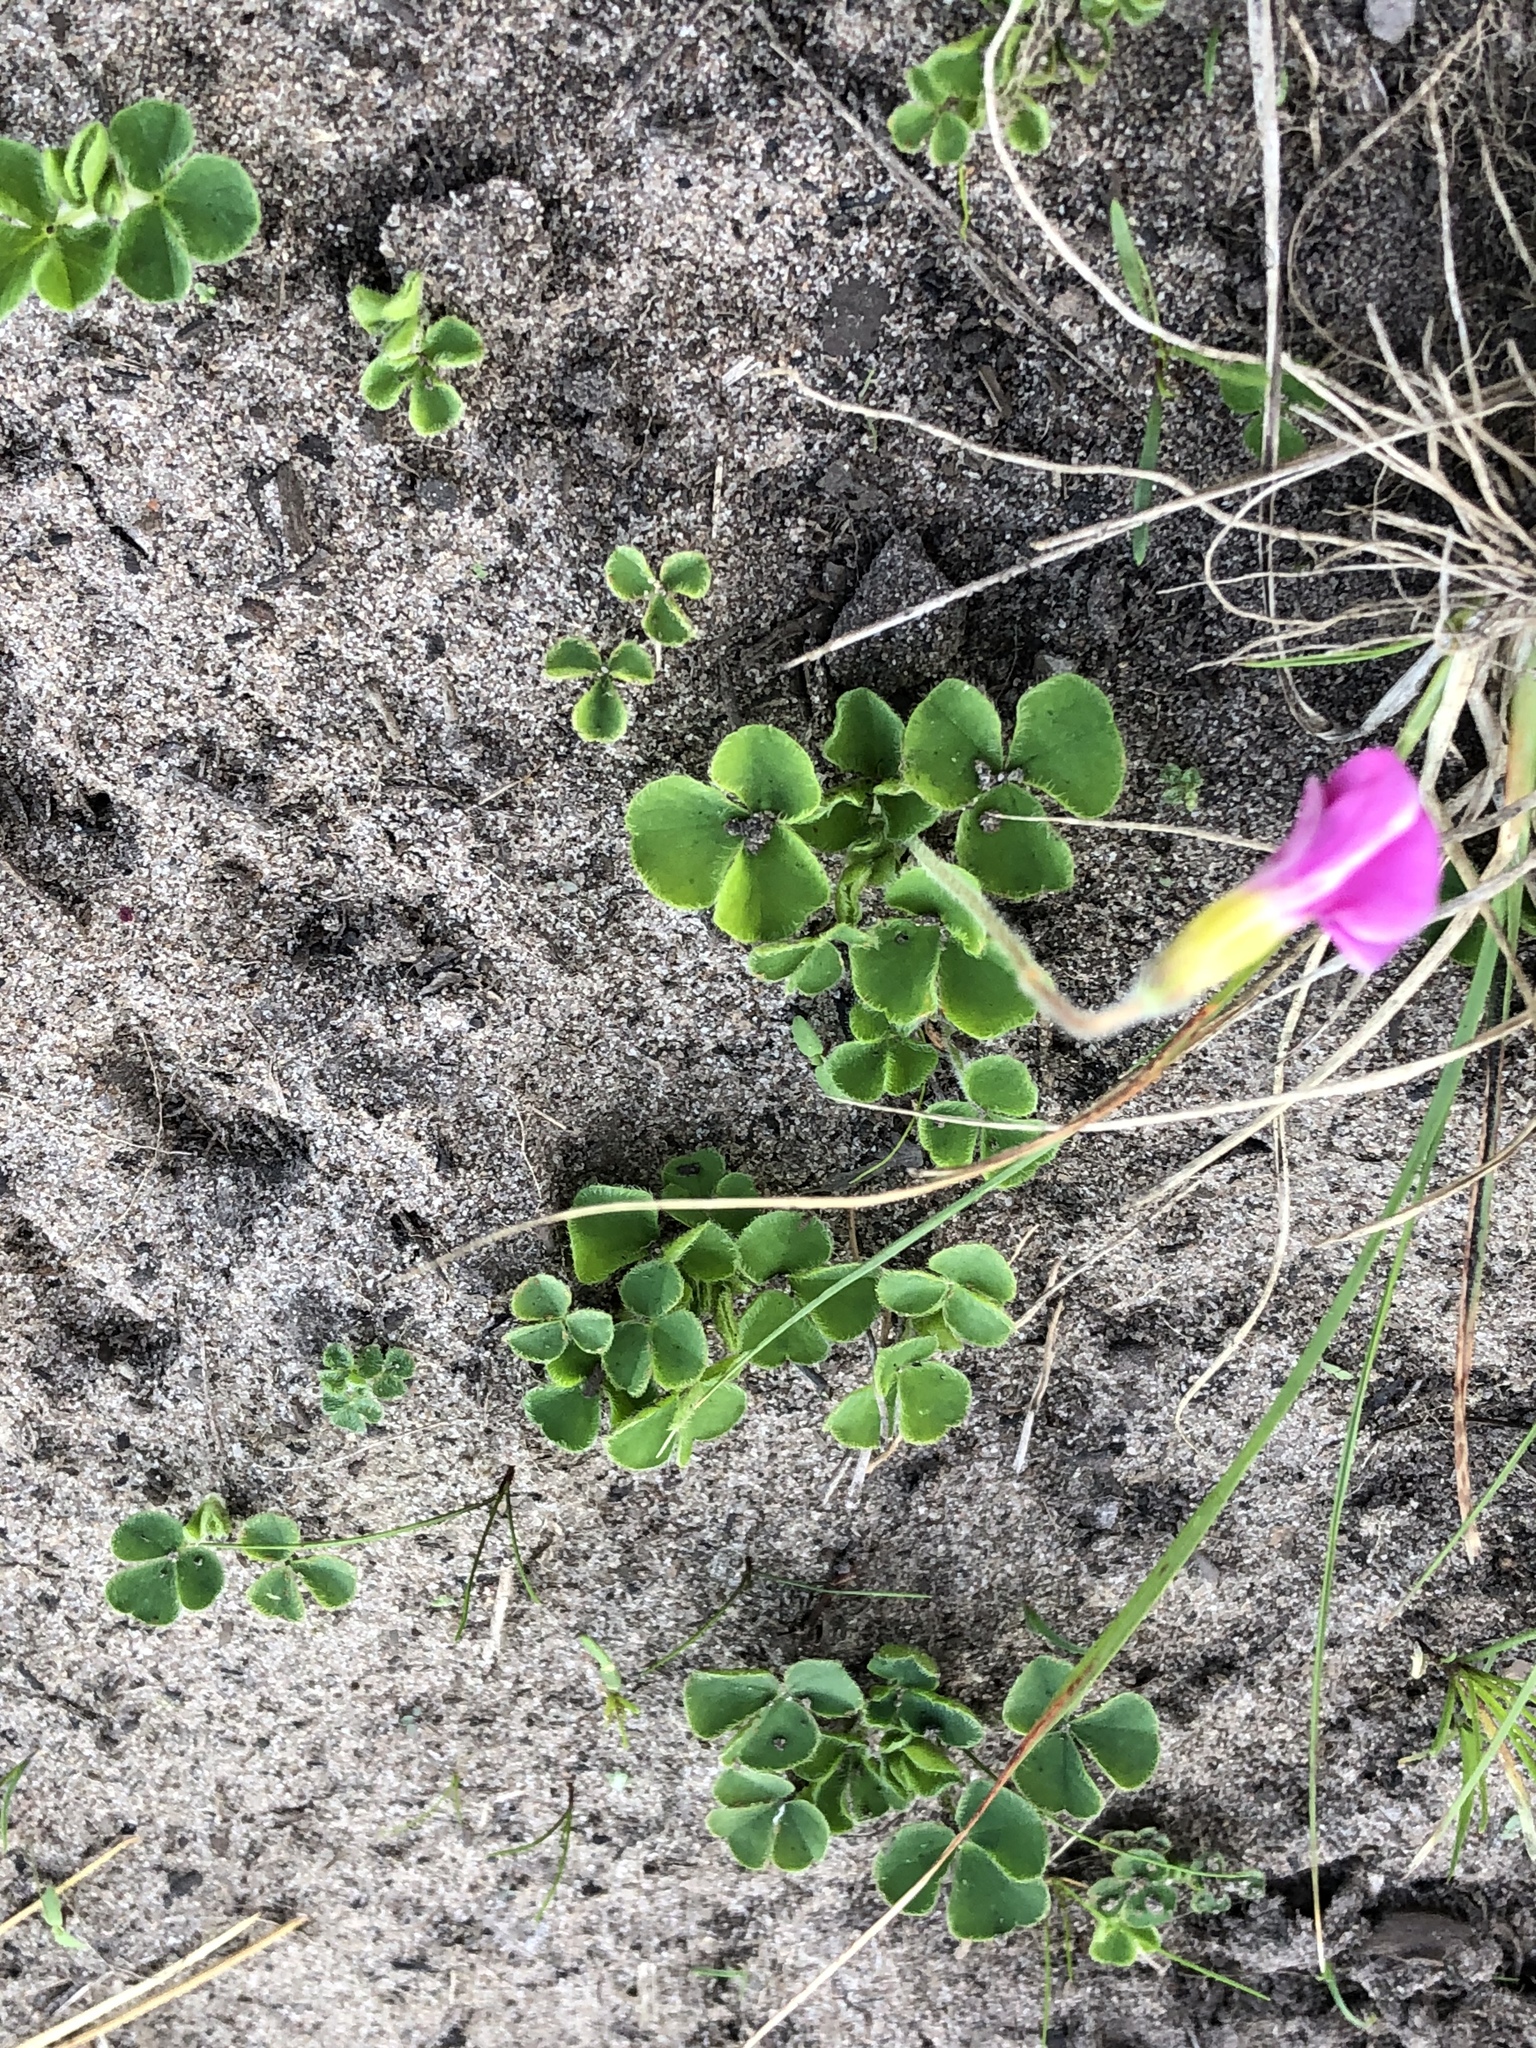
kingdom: Plantae
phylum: Tracheophyta
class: Magnoliopsida
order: Oxalidales
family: Oxalidaceae
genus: Oxalis
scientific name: Oxalis imbricata
